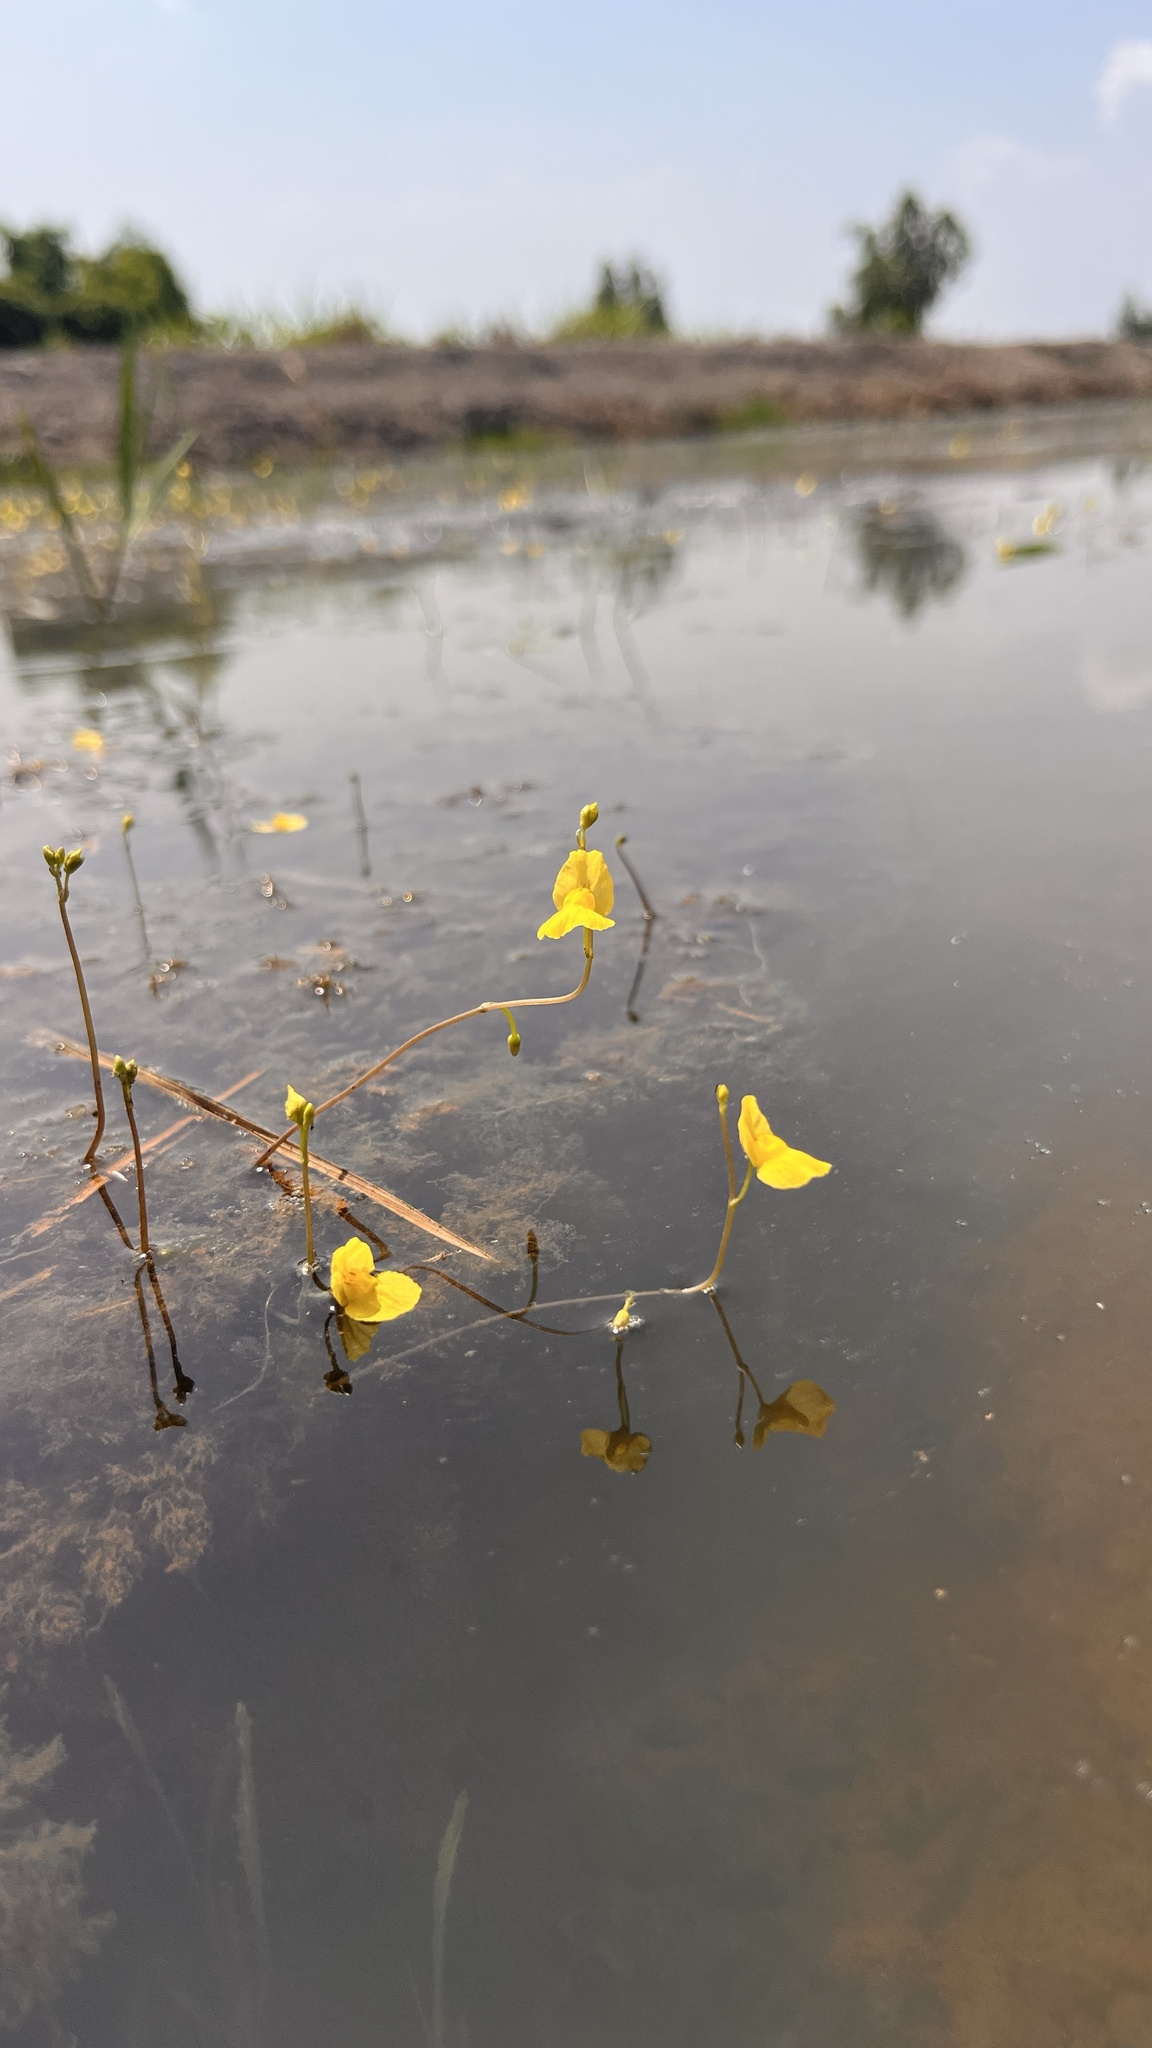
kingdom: Plantae
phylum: Tracheophyta
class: Magnoliopsida
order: Lamiales
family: Lentibulariaceae
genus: Utricularia
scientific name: Utricularia aurea
